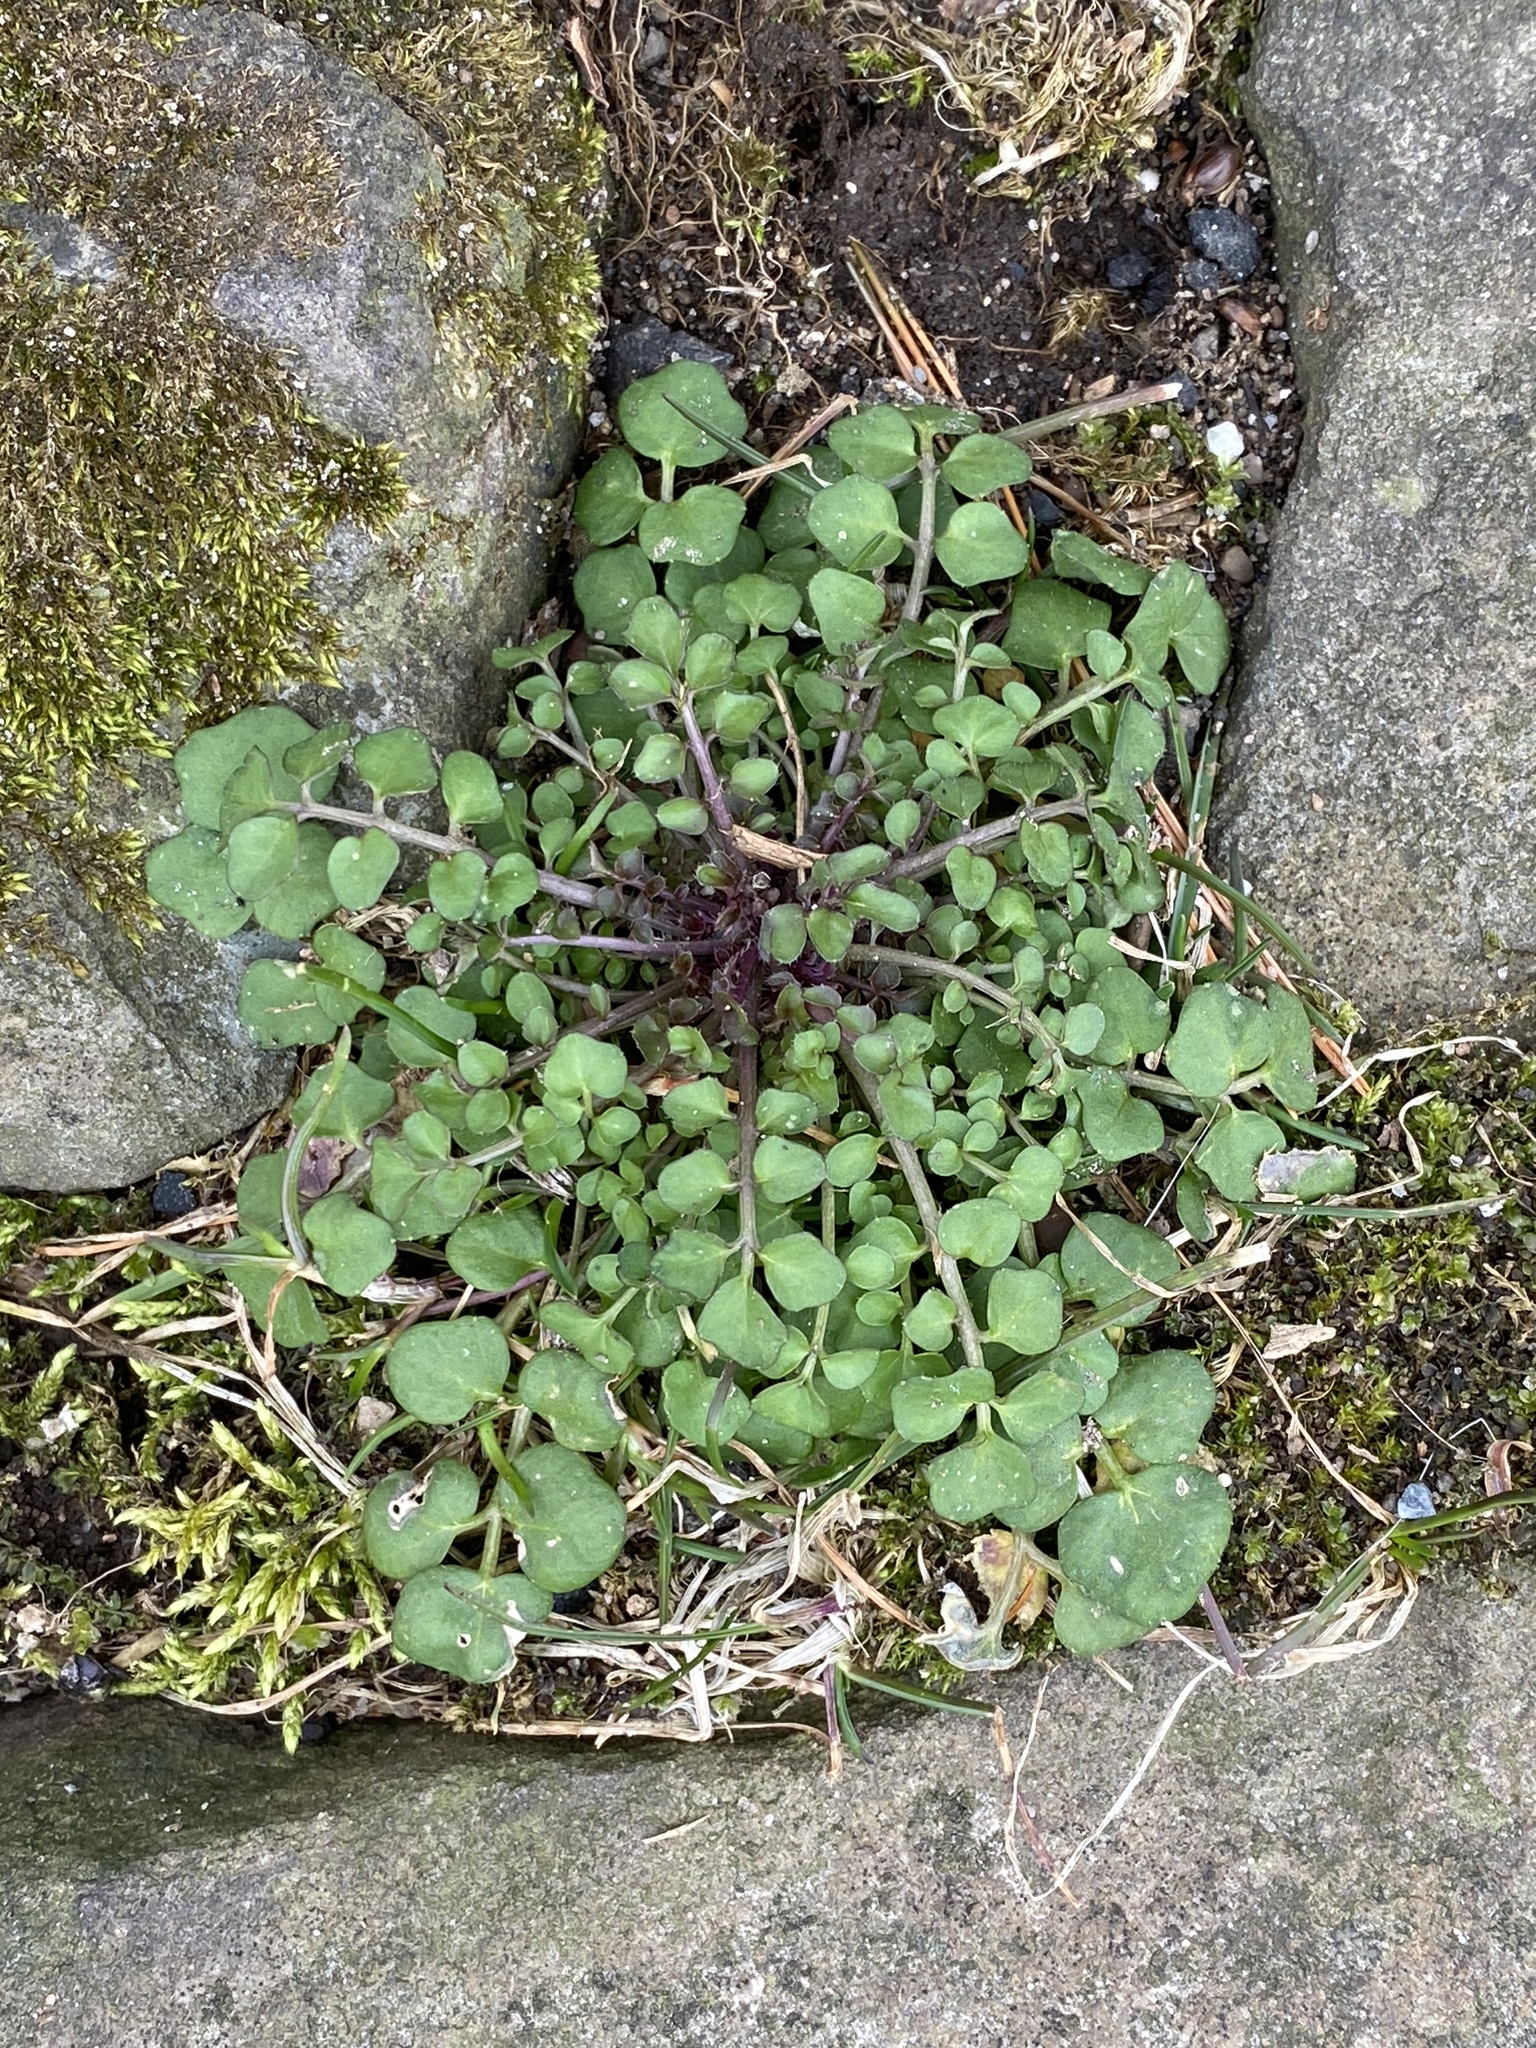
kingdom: Plantae
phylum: Tracheophyta
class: Magnoliopsida
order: Brassicales
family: Brassicaceae
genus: Cardamine
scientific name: Cardamine hirsuta
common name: Hairy bittercress
